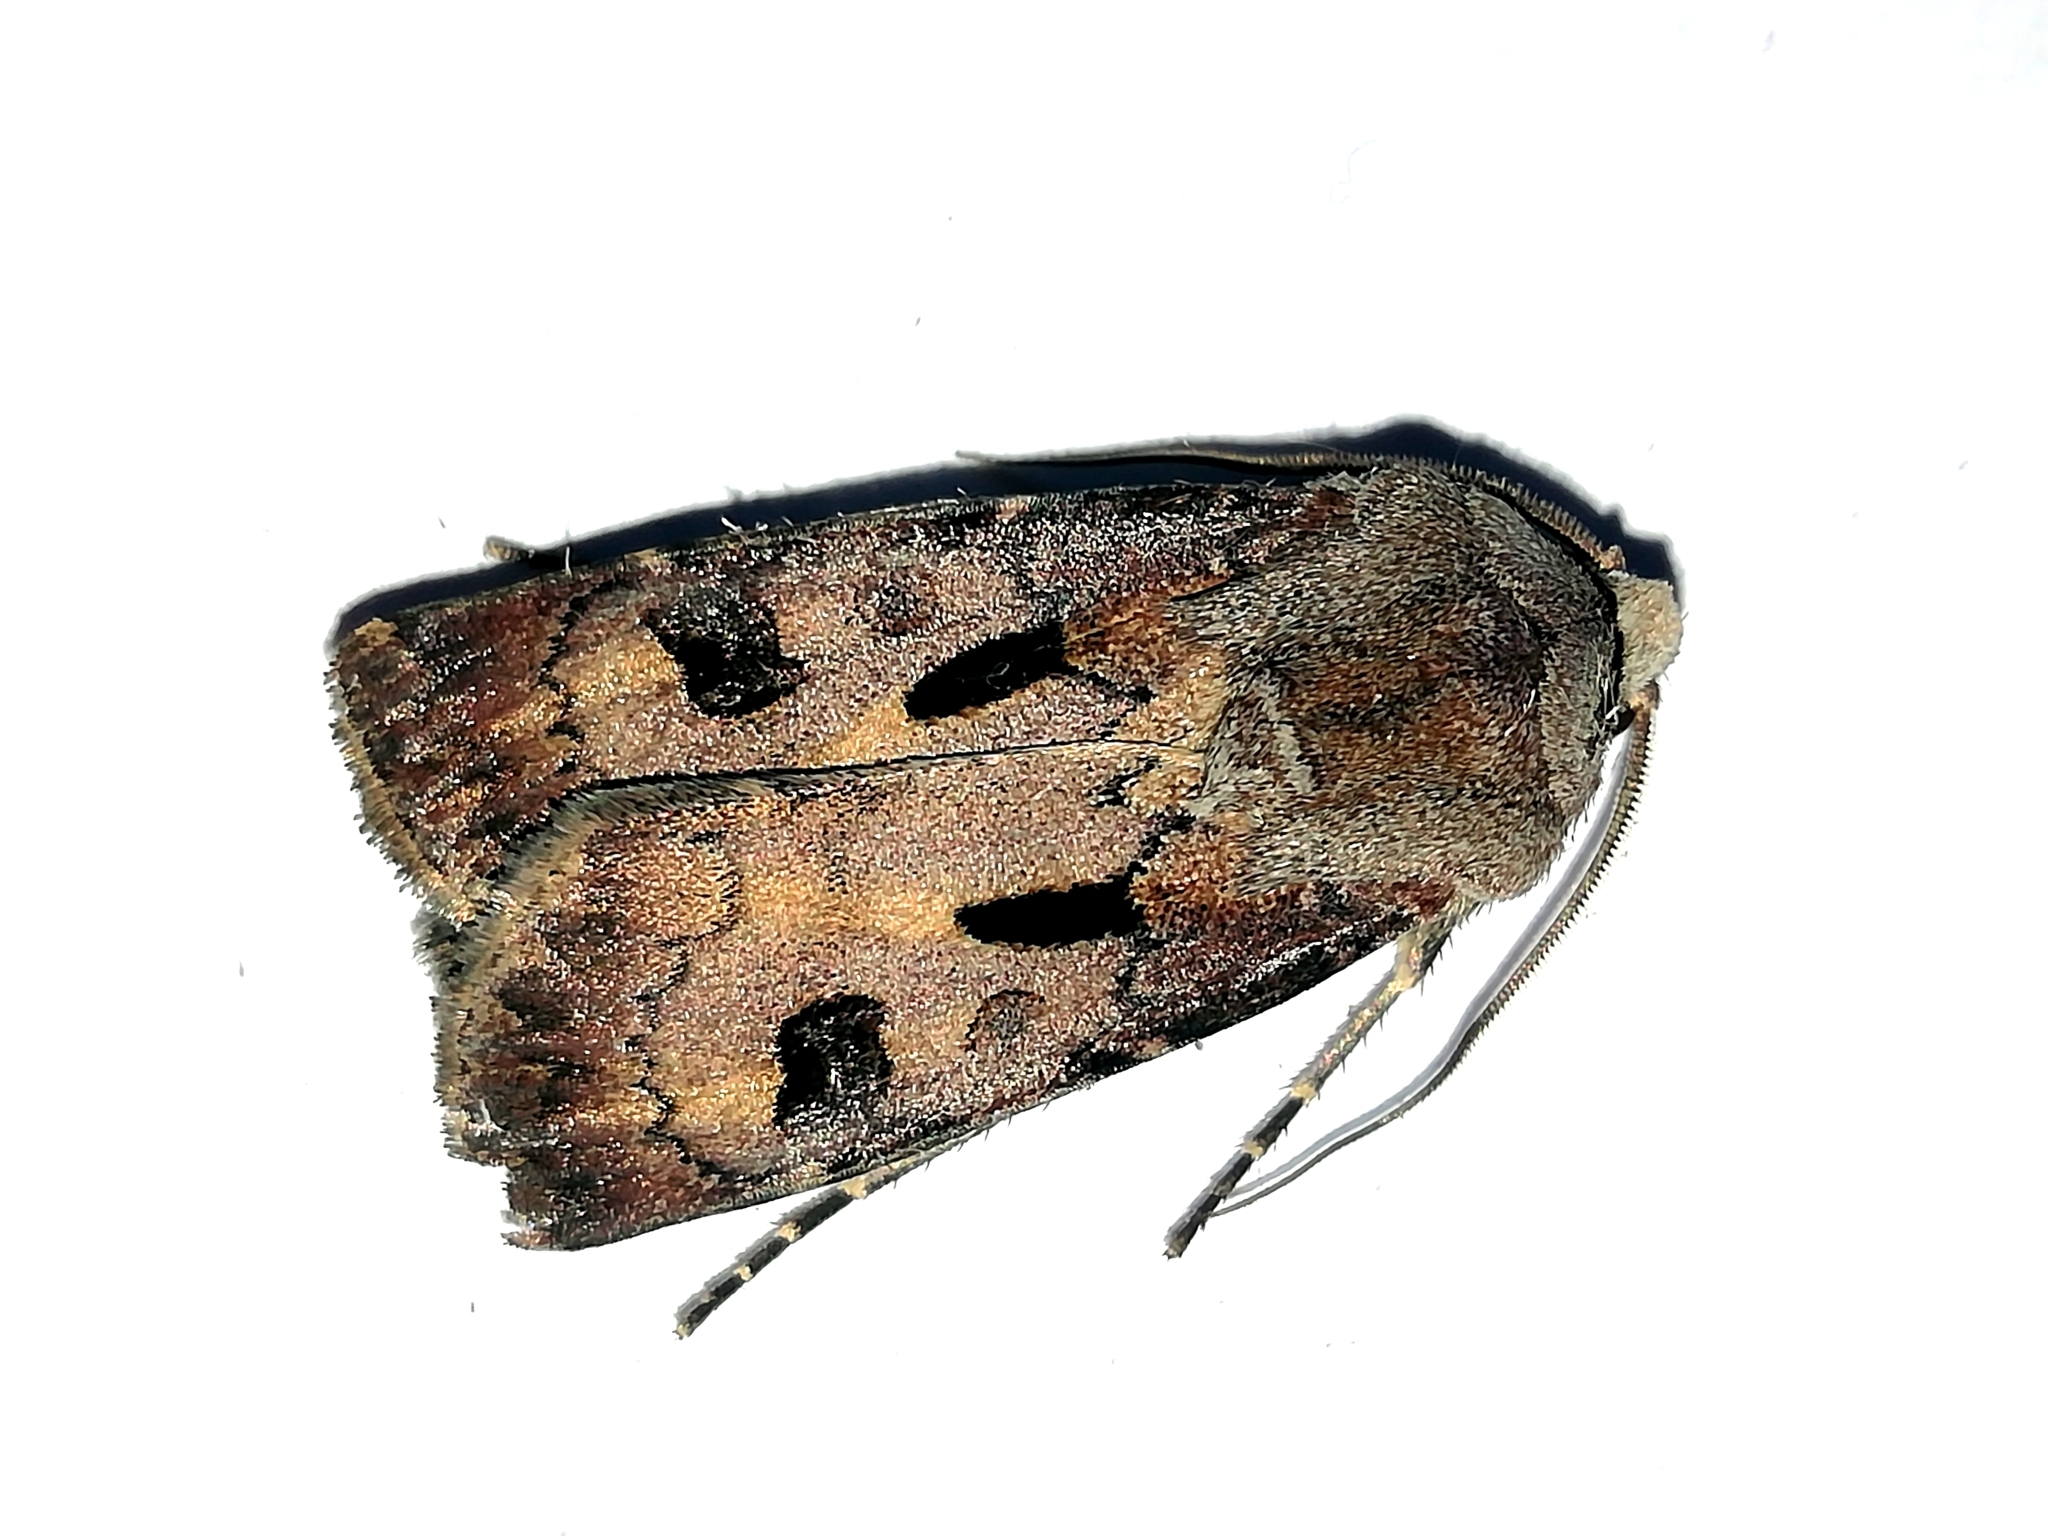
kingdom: Animalia
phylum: Arthropoda
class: Insecta
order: Lepidoptera
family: Noctuidae
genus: Agrotis
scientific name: Agrotis exclamationis
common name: Heart and dart
